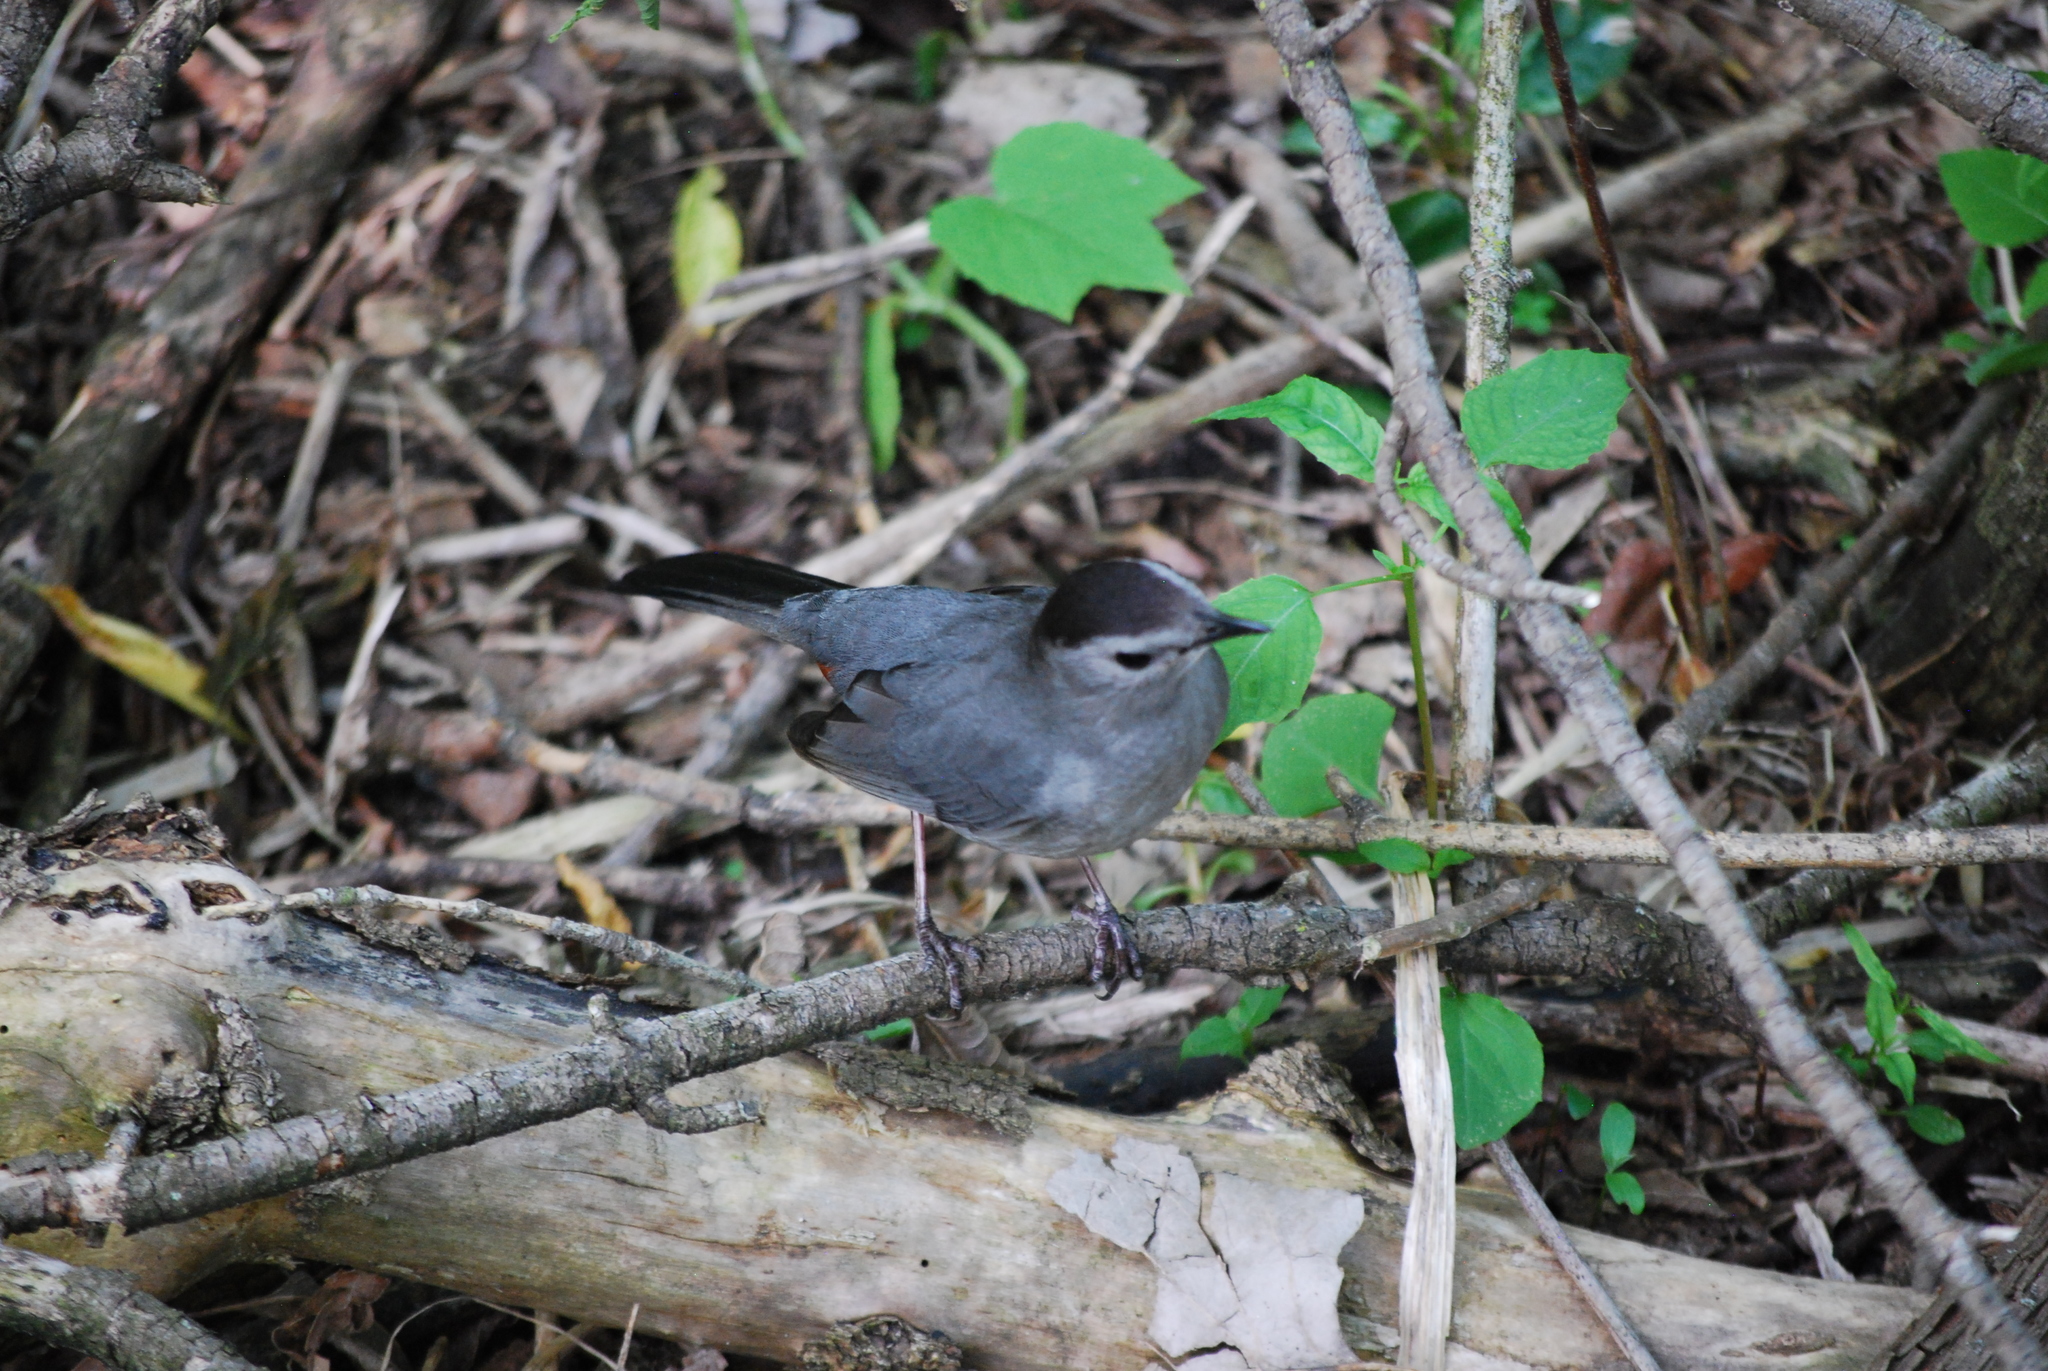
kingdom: Animalia
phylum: Chordata
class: Aves
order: Passeriformes
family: Mimidae
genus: Dumetella
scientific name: Dumetella carolinensis
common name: Gray catbird
